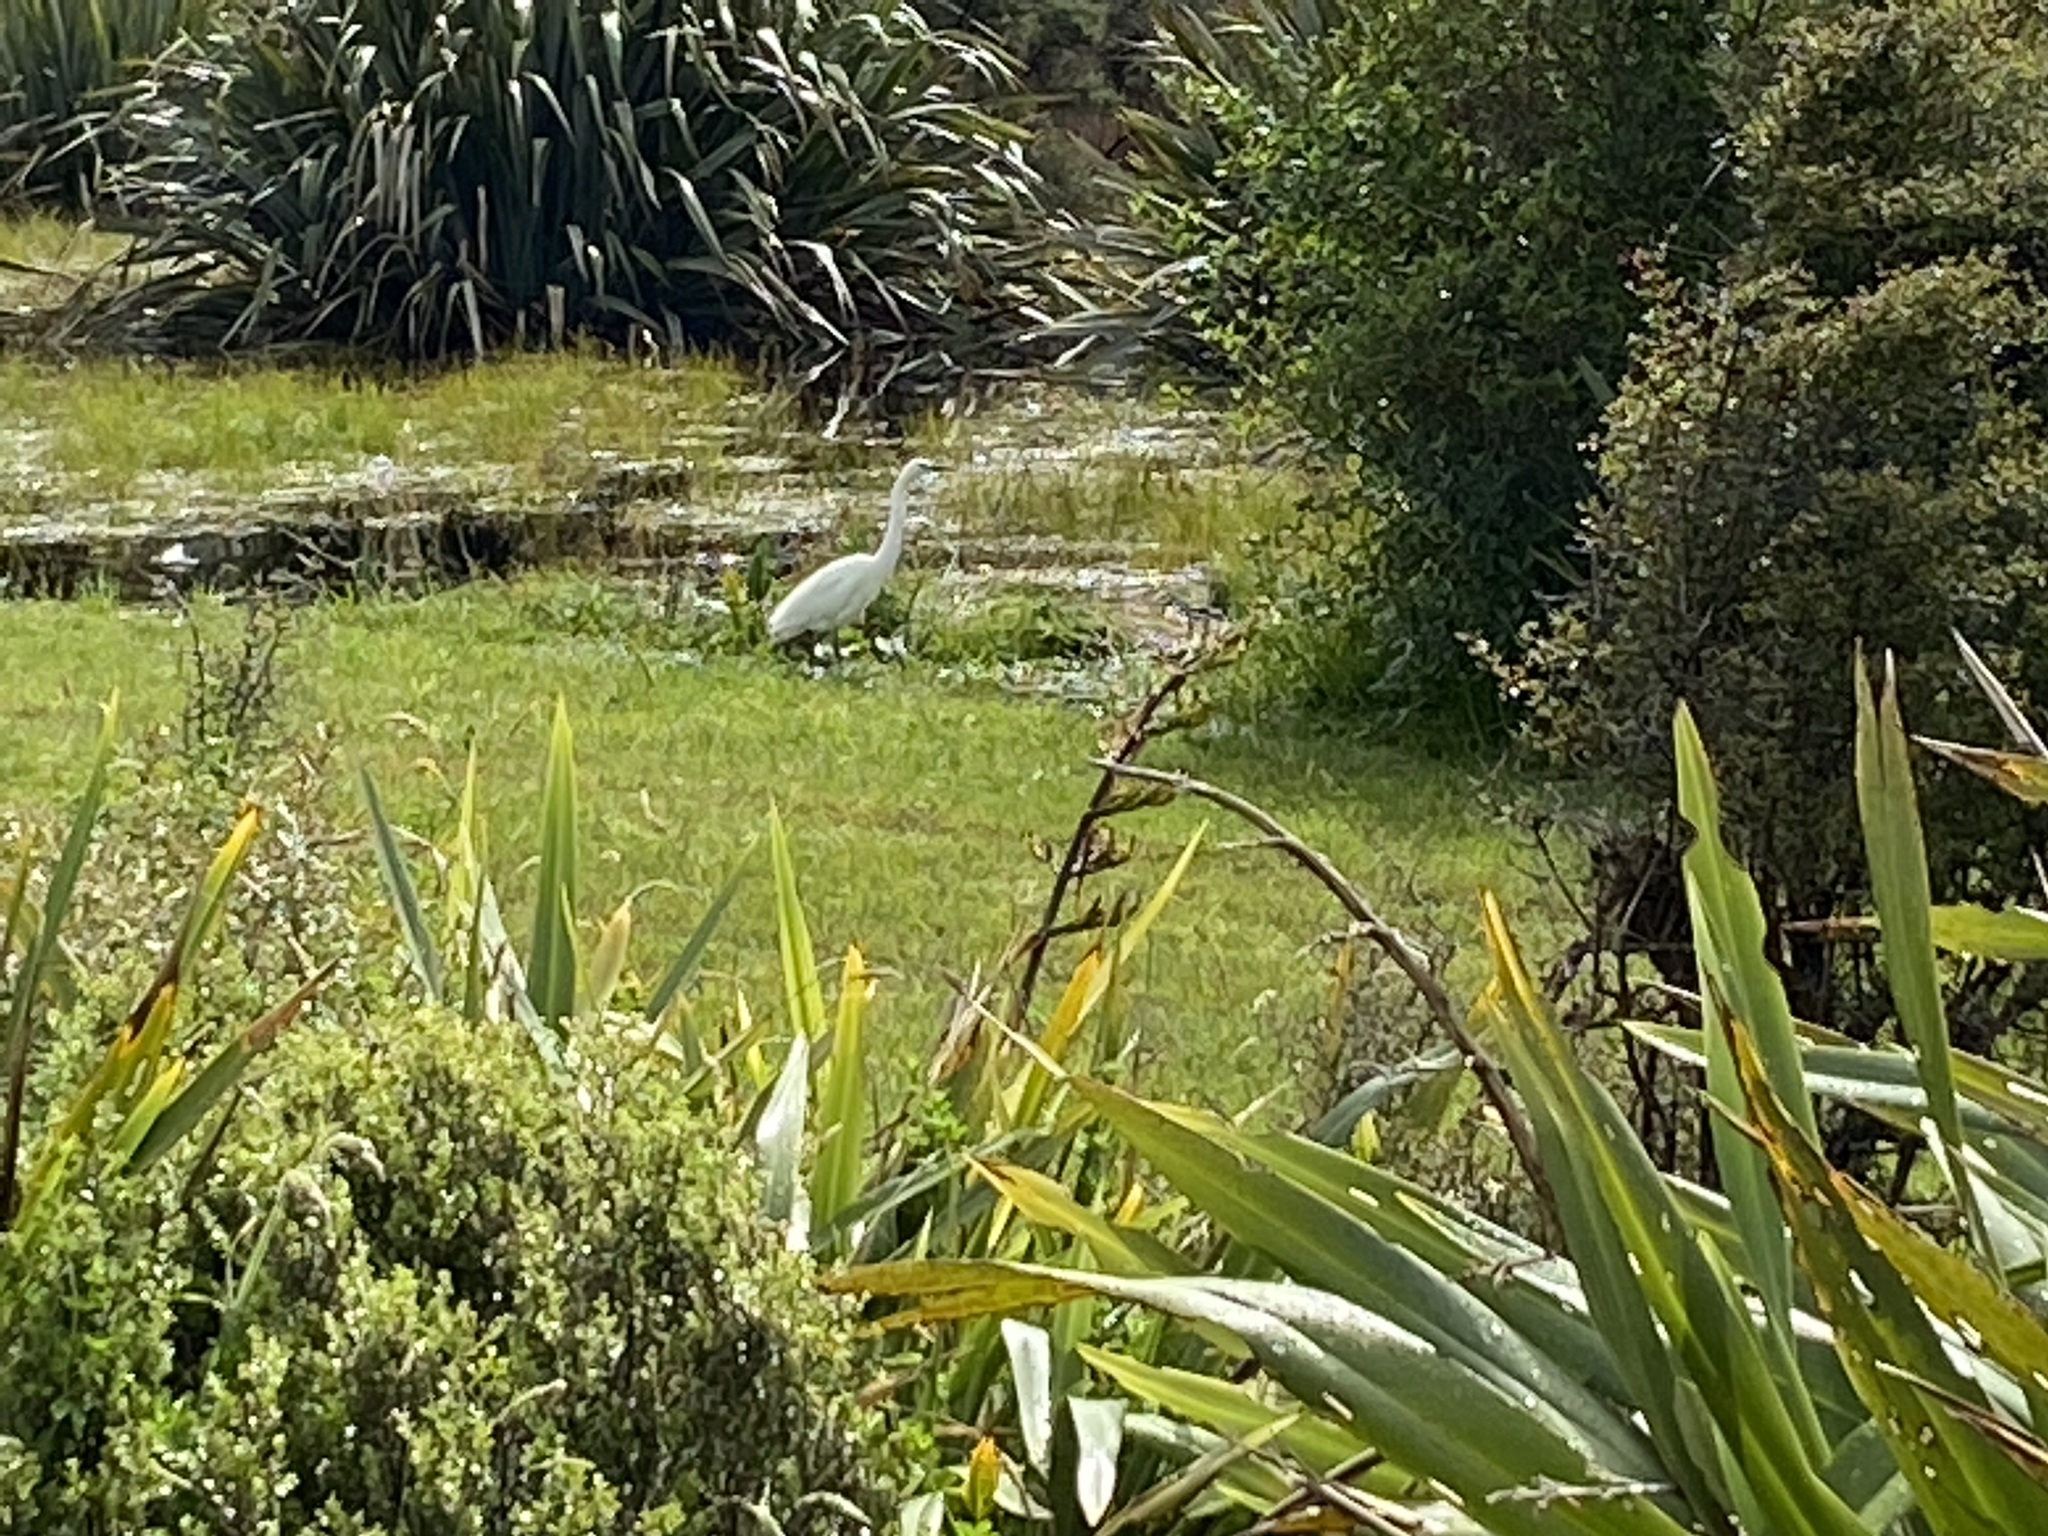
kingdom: Animalia
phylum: Chordata
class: Aves
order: Pelecaniformes
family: Ardeidae
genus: Ardea
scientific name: Ardea modesta
